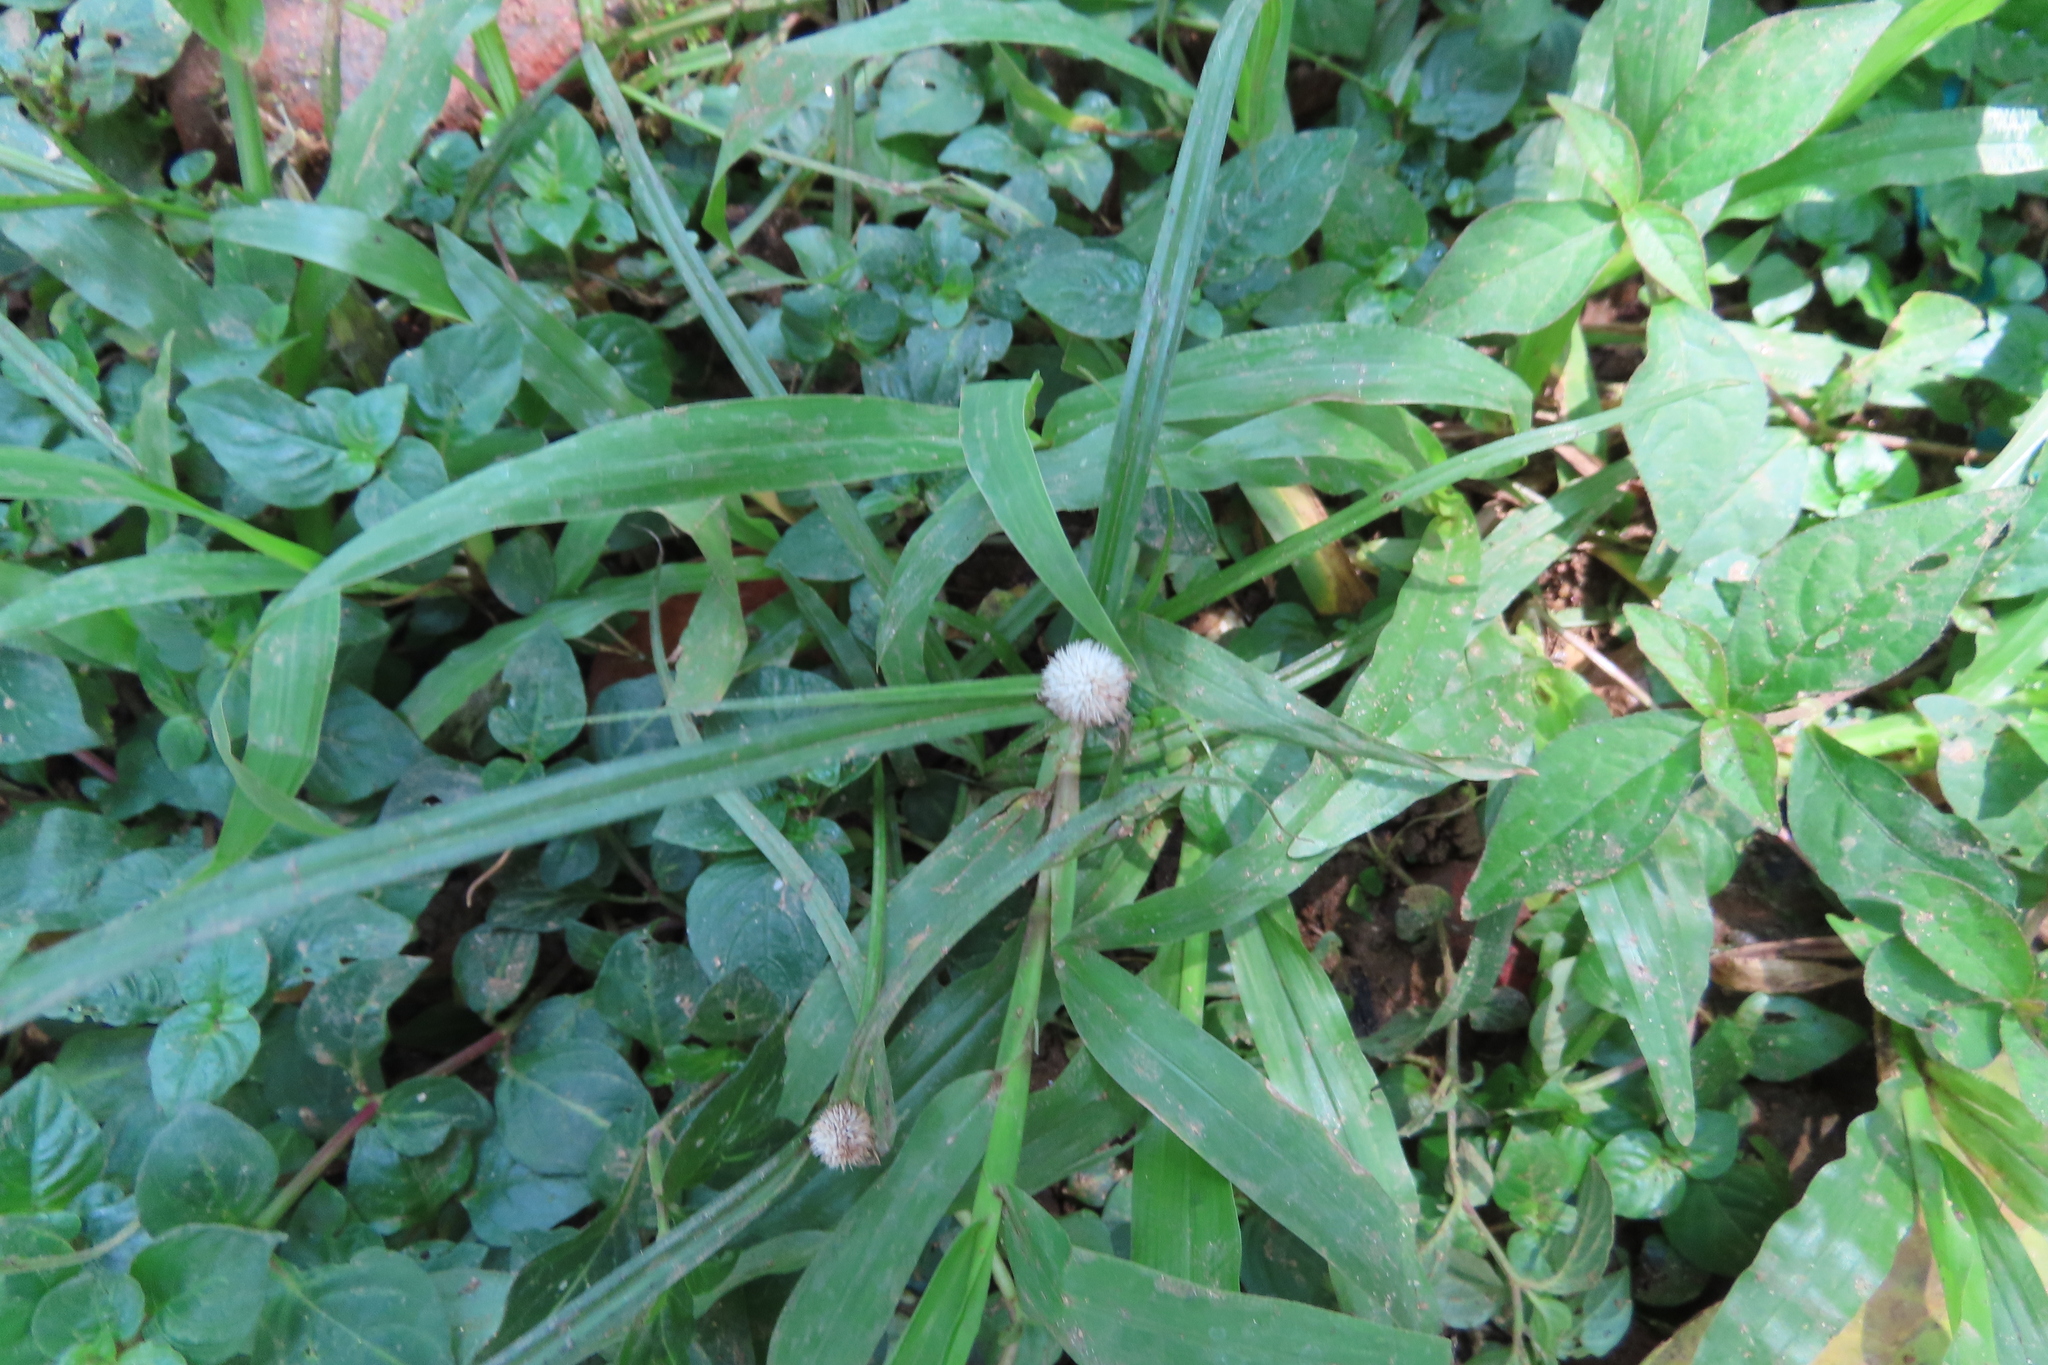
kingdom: Plantae
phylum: Tracheophyta
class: Liliopsida
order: Poales
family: Cyperaceae
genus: Cyperus
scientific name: Cyperus mindorensis
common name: Flatsedge
